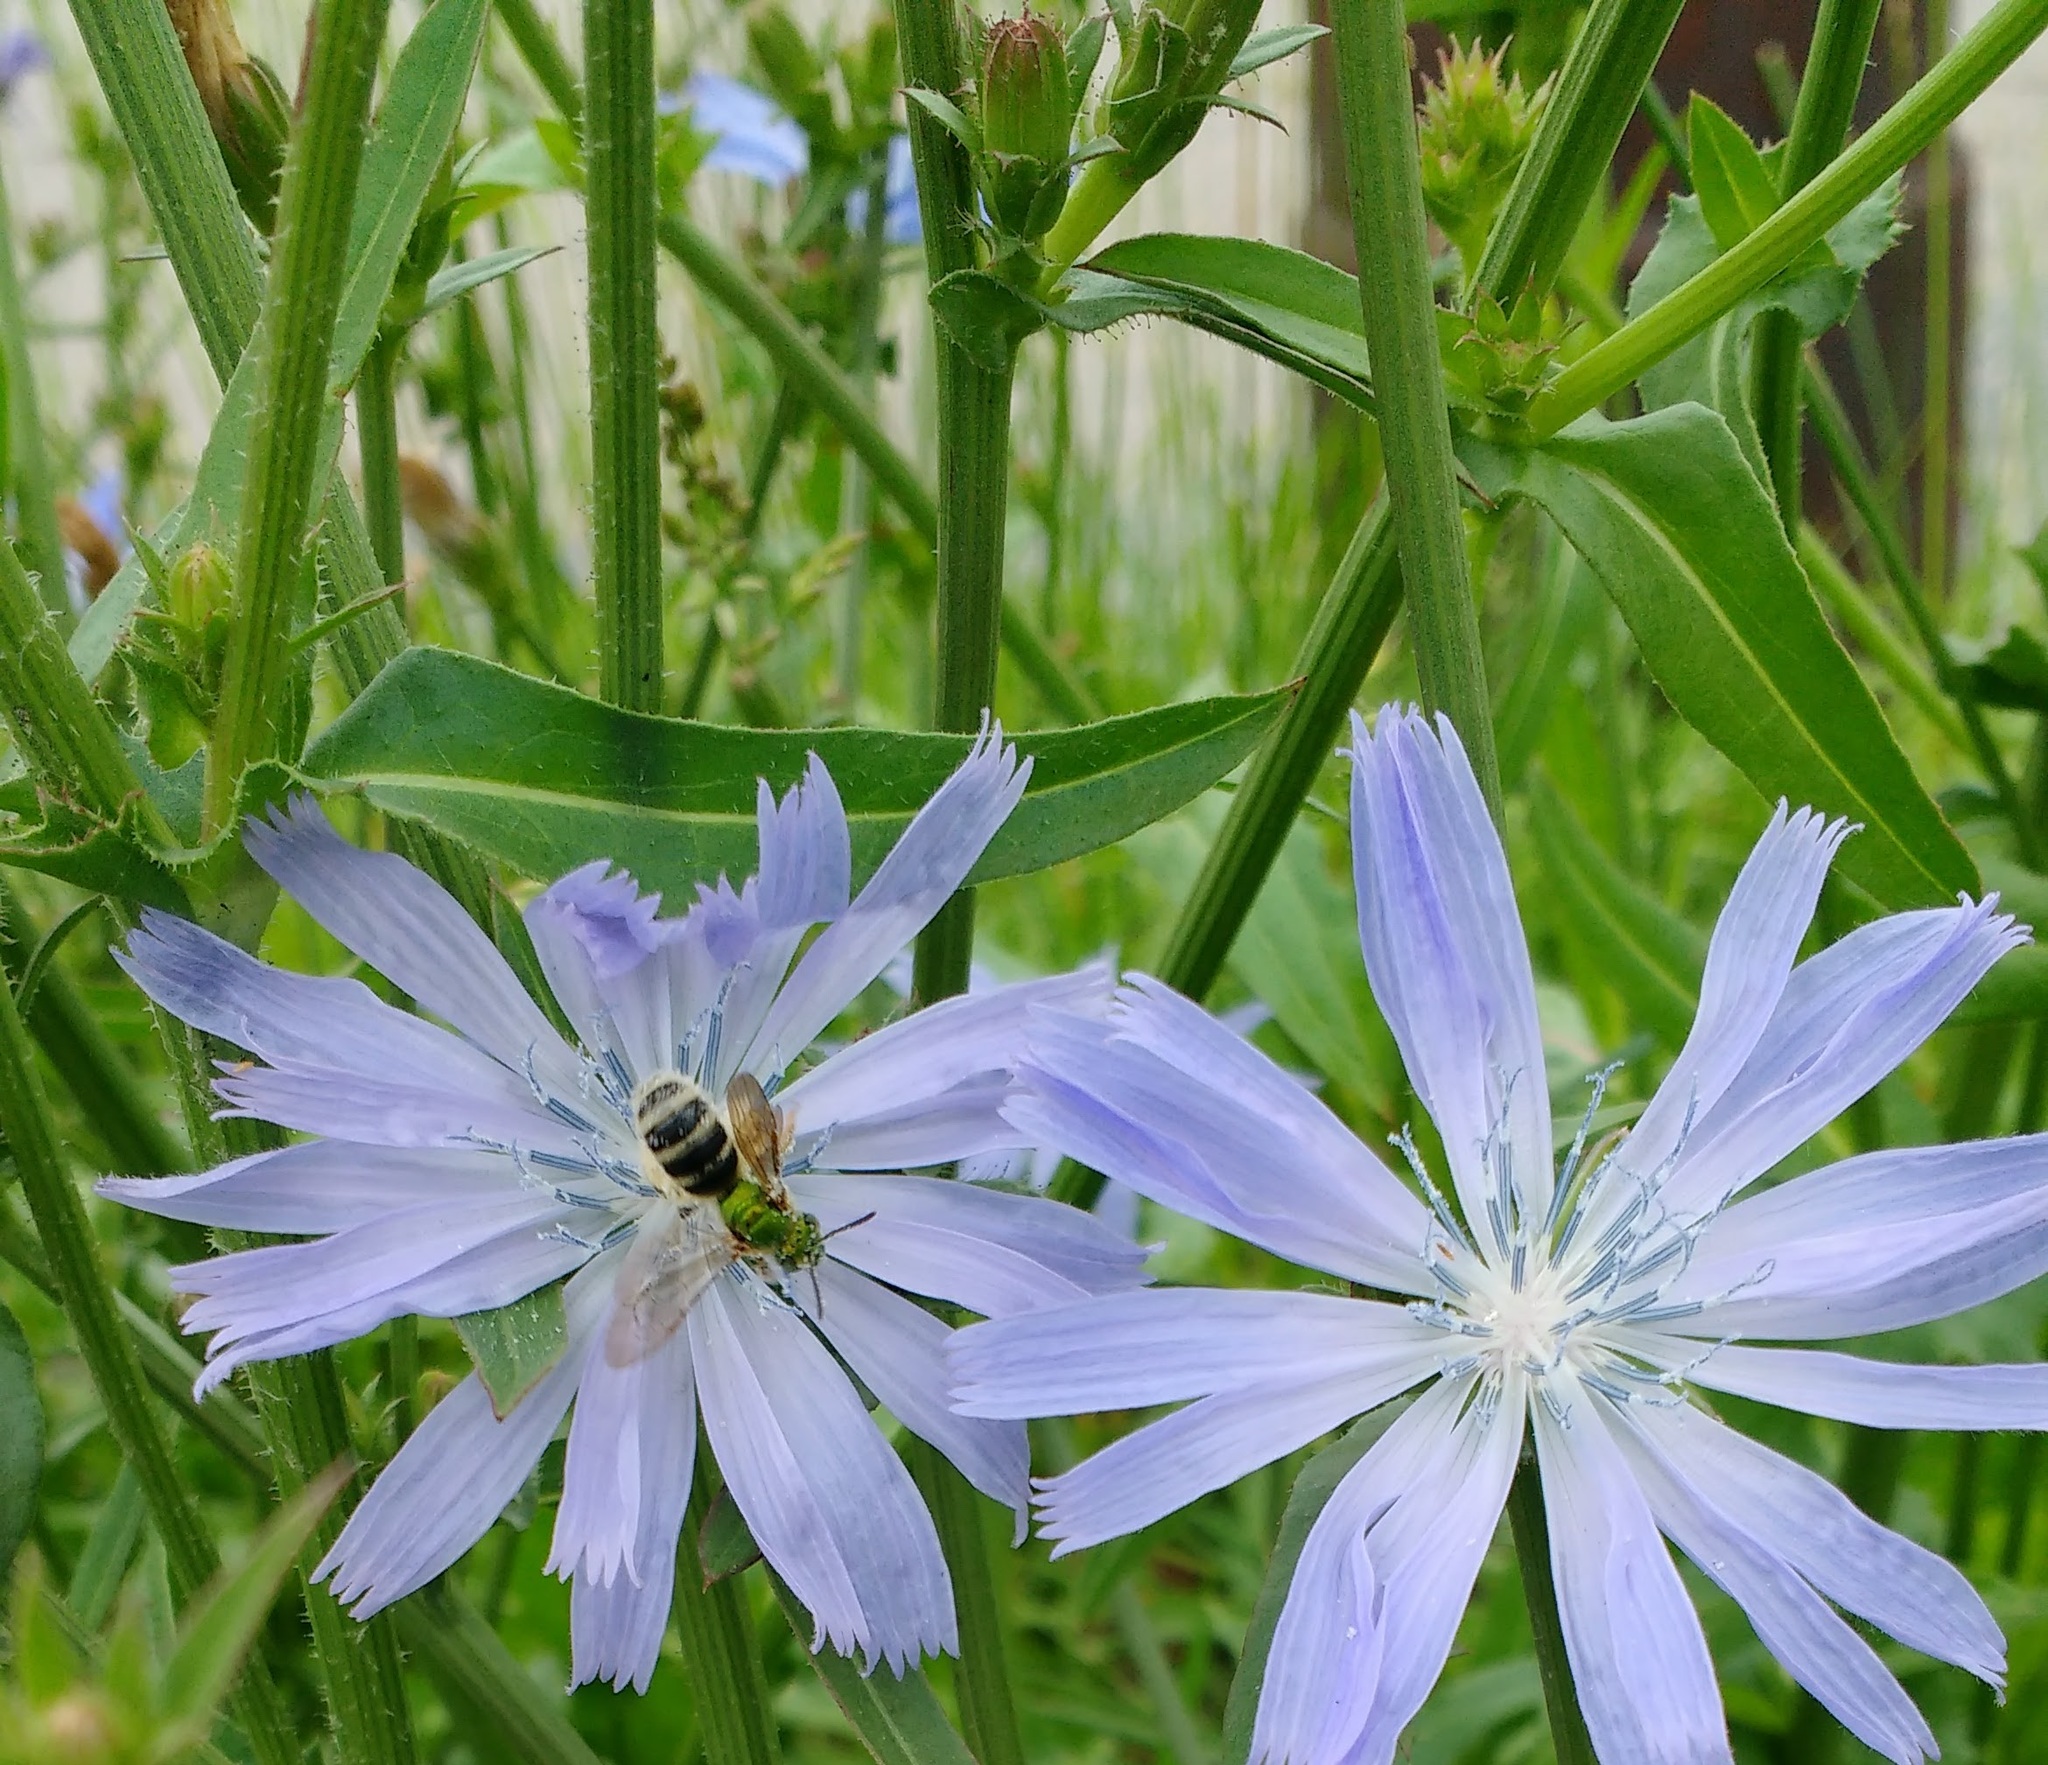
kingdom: Plantae
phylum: Tracheophyta
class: Magnoliopsida
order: Asterales
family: Asteraceae
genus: Cichorium
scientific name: Cichorium intybus
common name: Chicory
